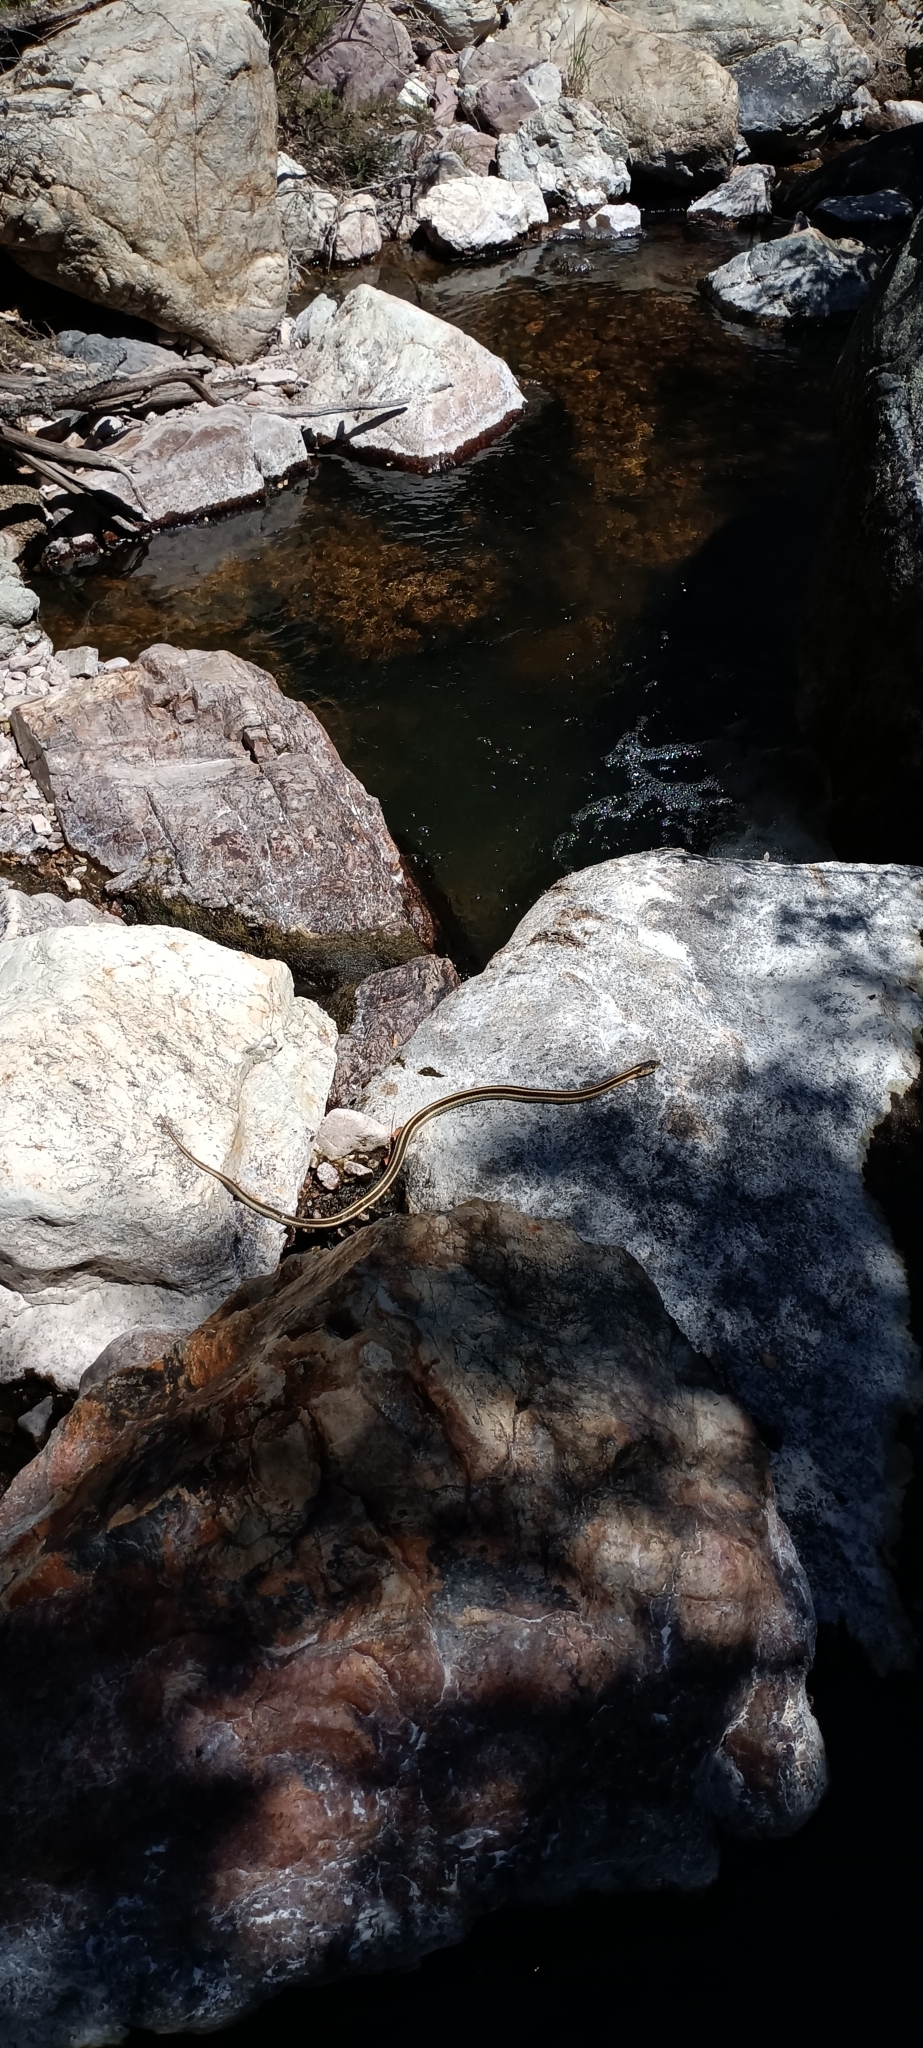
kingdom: Animalia
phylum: Chordata
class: Squamata
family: Colubridae
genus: Thamnophis
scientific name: Thamnophis sirtalis
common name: Common garter snake
